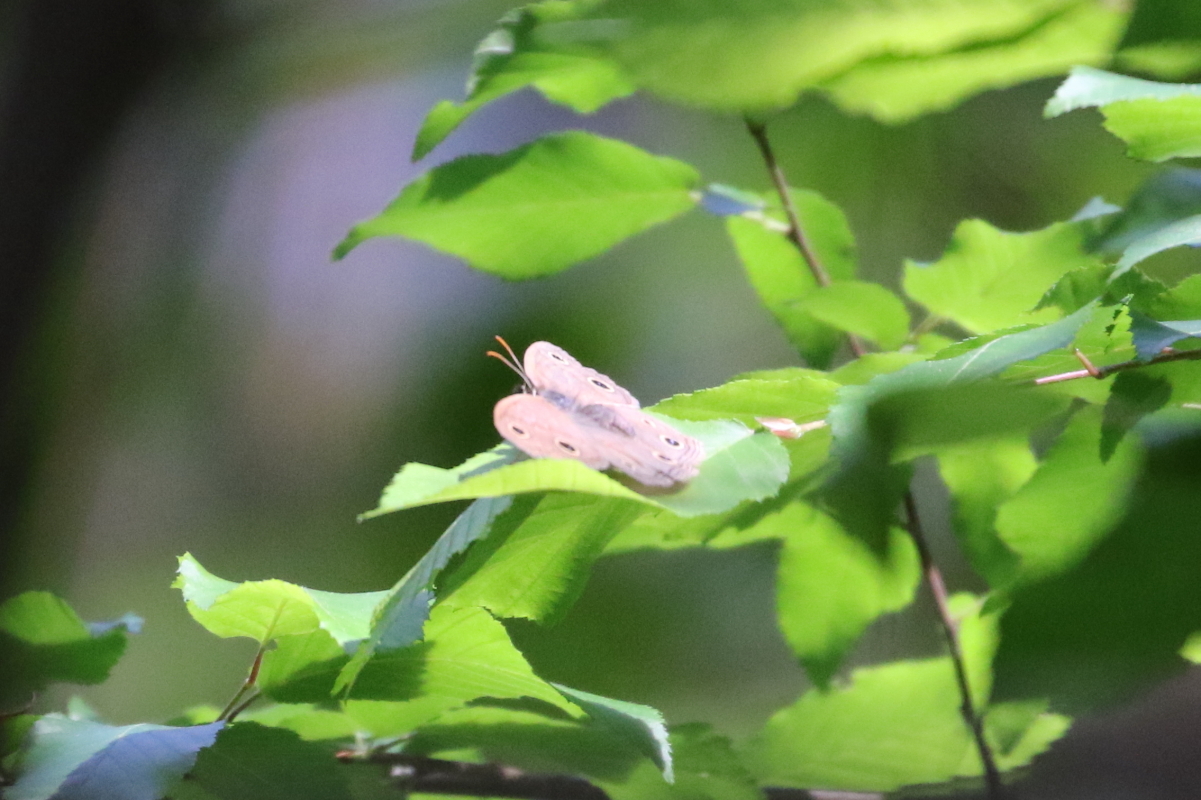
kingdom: Animalia
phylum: Arthropoda
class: Insecta
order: Lepidoptera
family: Nymphalidae
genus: Euptychia
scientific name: Euptychia cymela
